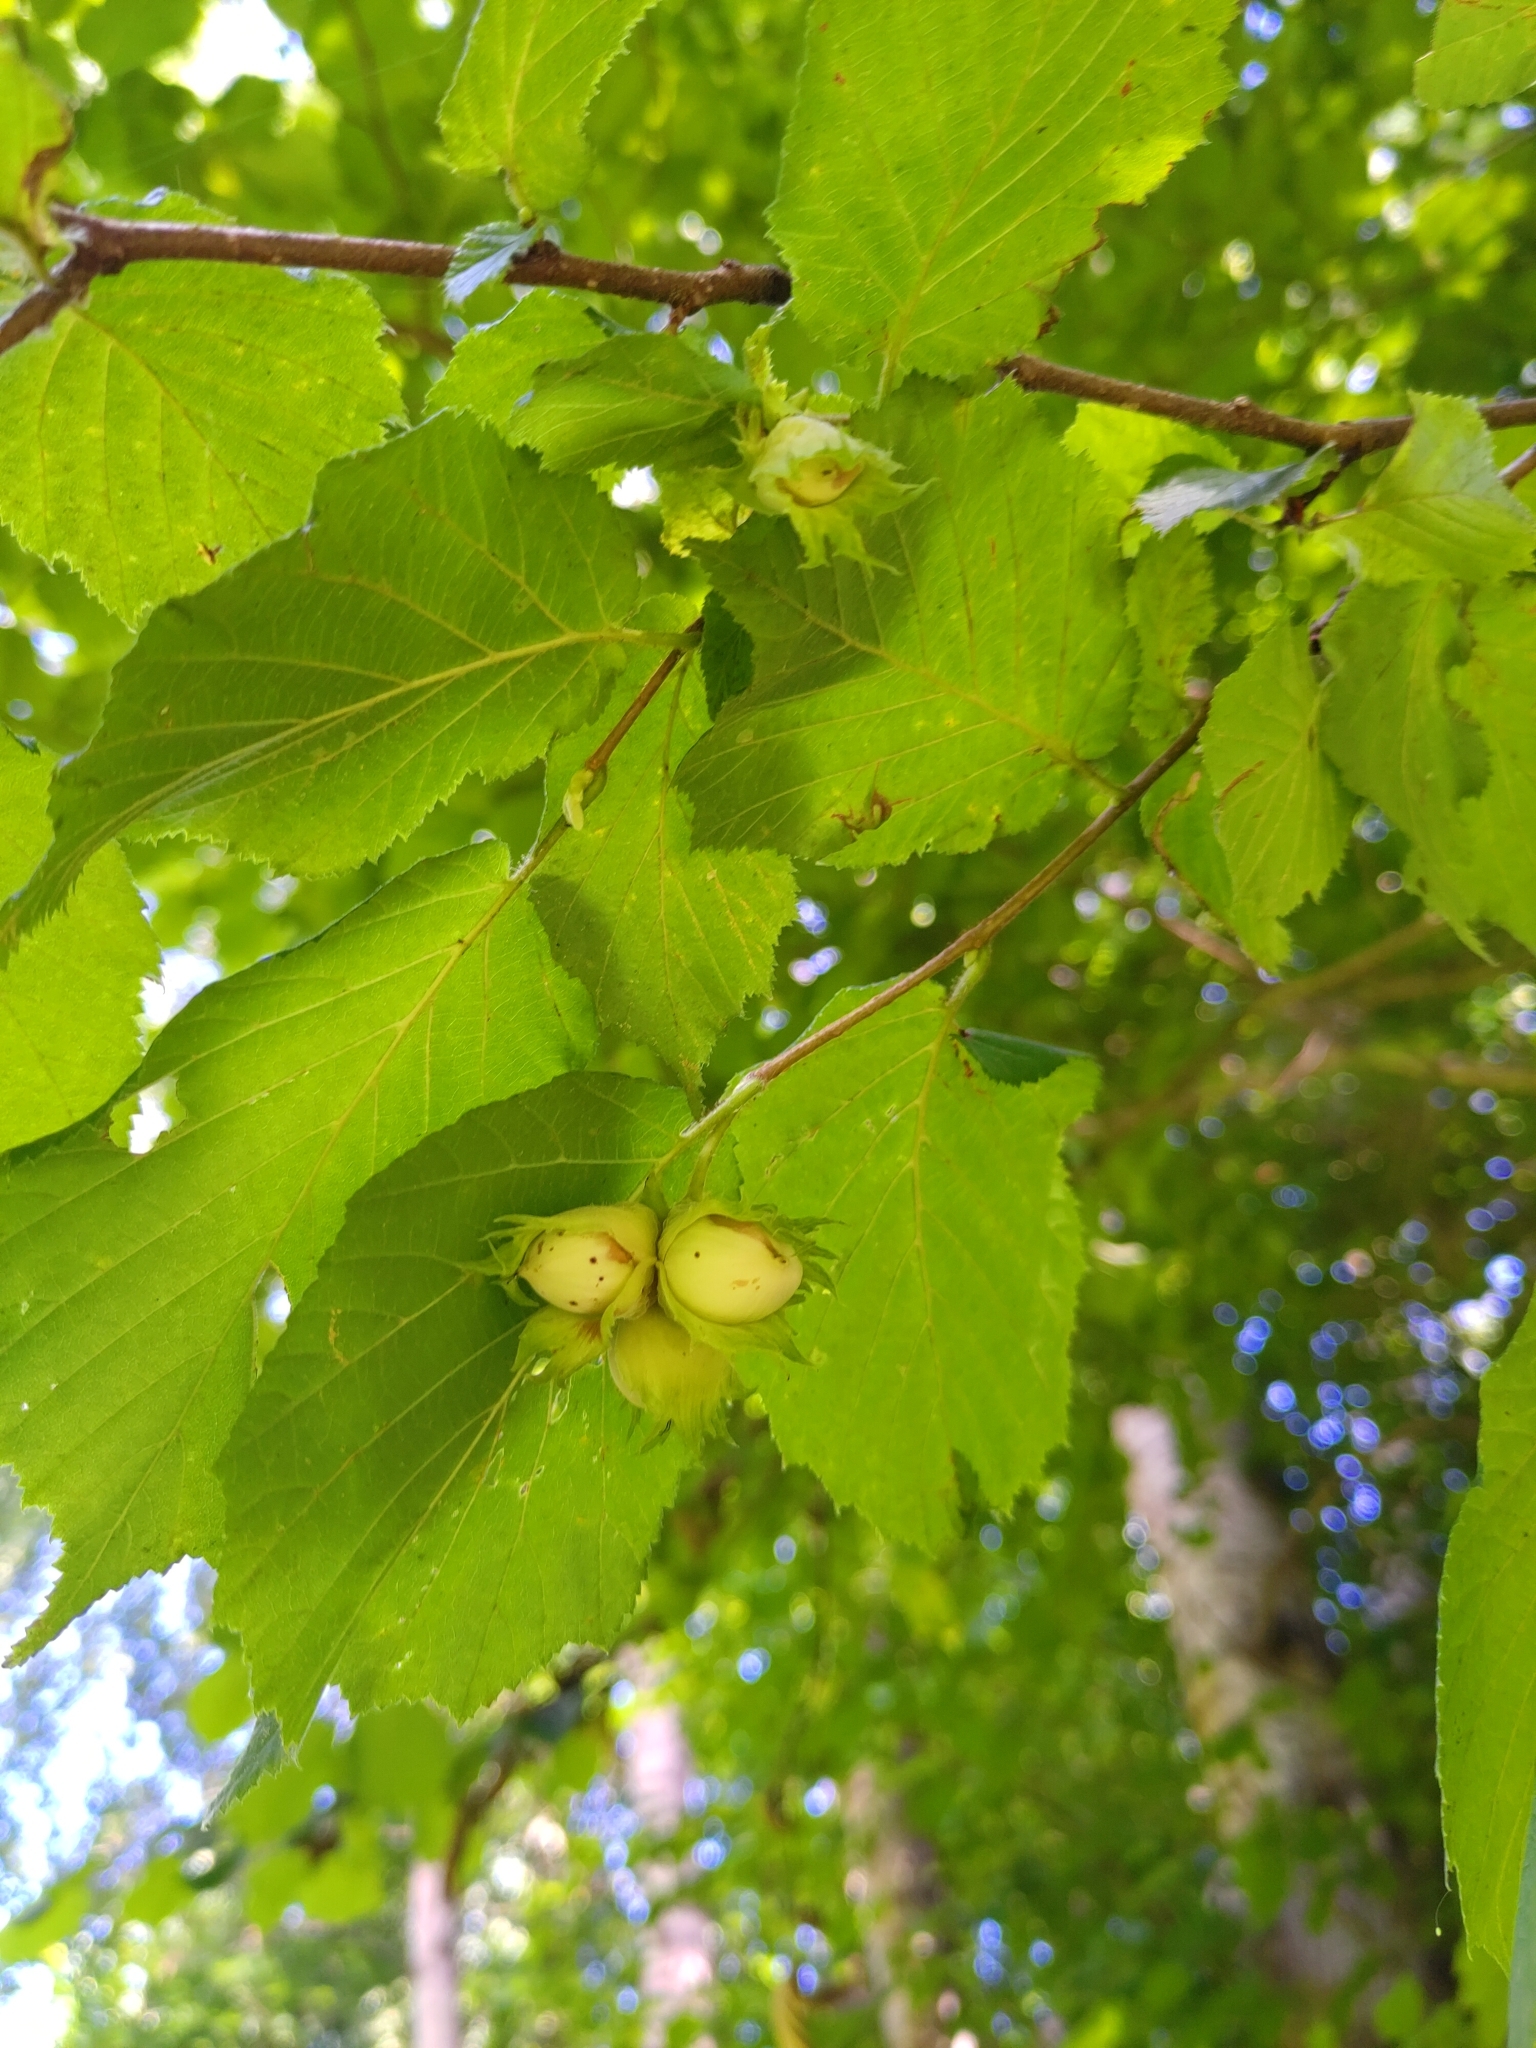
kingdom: Plantae
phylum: Tracheophyta
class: Magnoliopsida
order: Fagales
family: Betulaceae
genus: Corylus
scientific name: Corylus avellana
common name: European hazel
